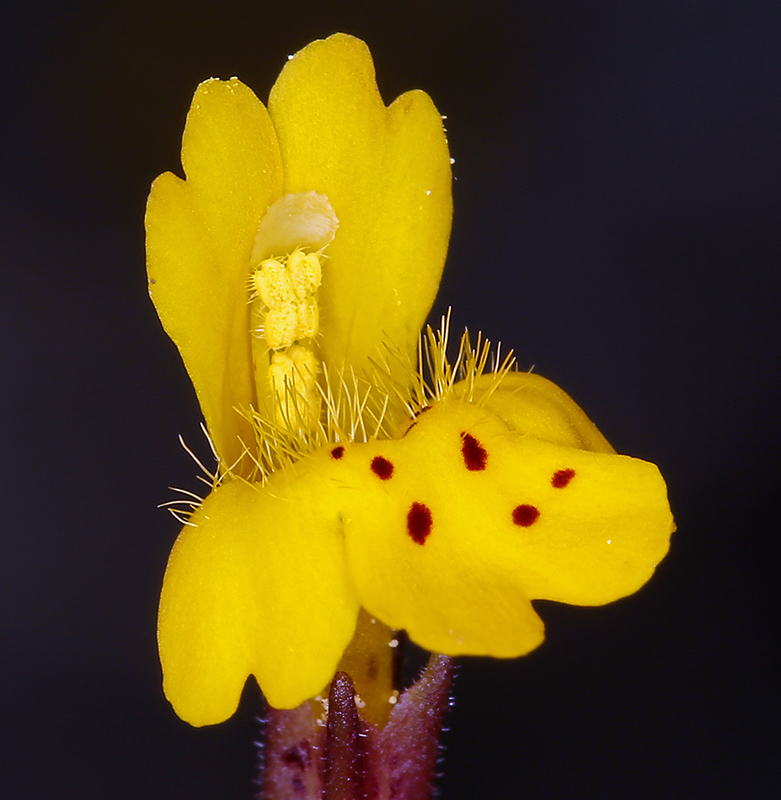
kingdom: Plantae
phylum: Tracheophyta
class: Magnoliopsida
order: Lamiales
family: Phrymaceae
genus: Erythranthe
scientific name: Erythranthe bicolor
